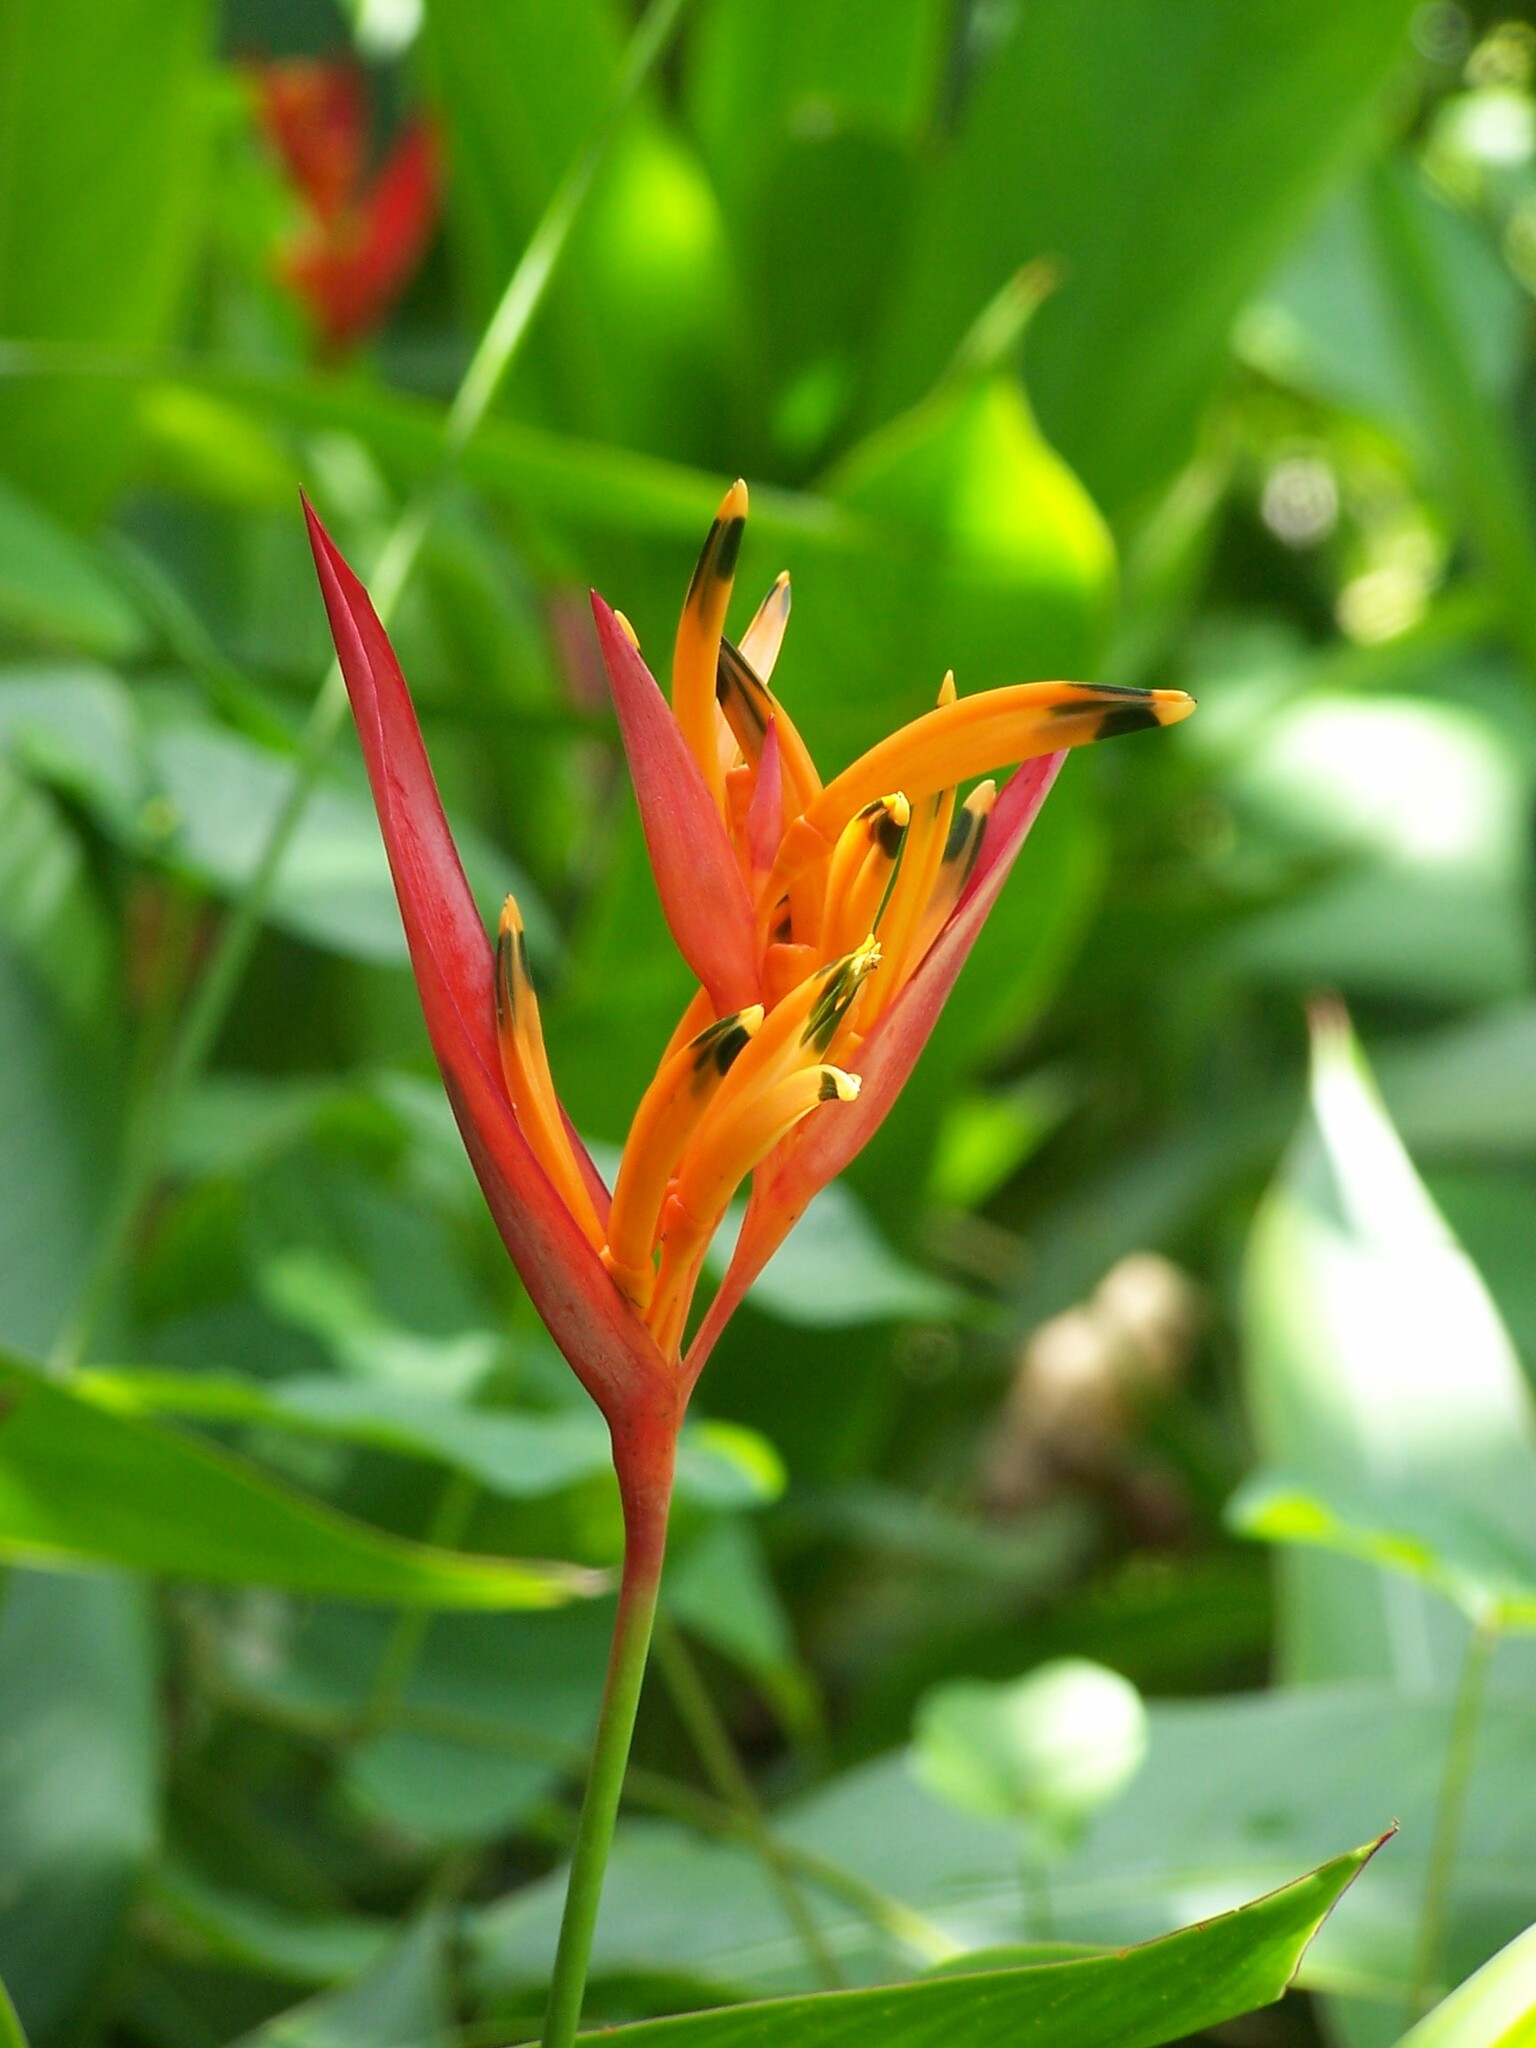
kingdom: Plantae
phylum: Tracheophyta
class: Liliopsida
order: Zingiberales
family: Heliconiaceae
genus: Heliconia
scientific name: Heliconia psittacorum
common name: Parrot's-flower
